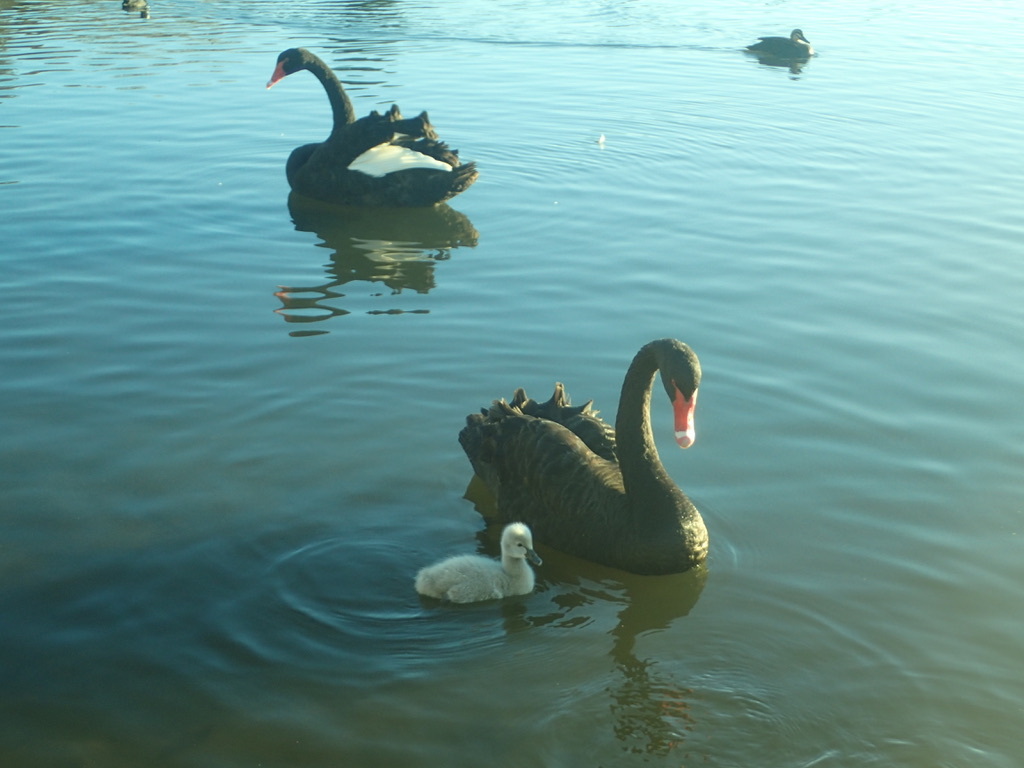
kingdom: Animalia
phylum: Chordata
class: Aves
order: Anseriformes
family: Anatidae
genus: Cygnus
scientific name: Cygnus atratus
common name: Black swan
